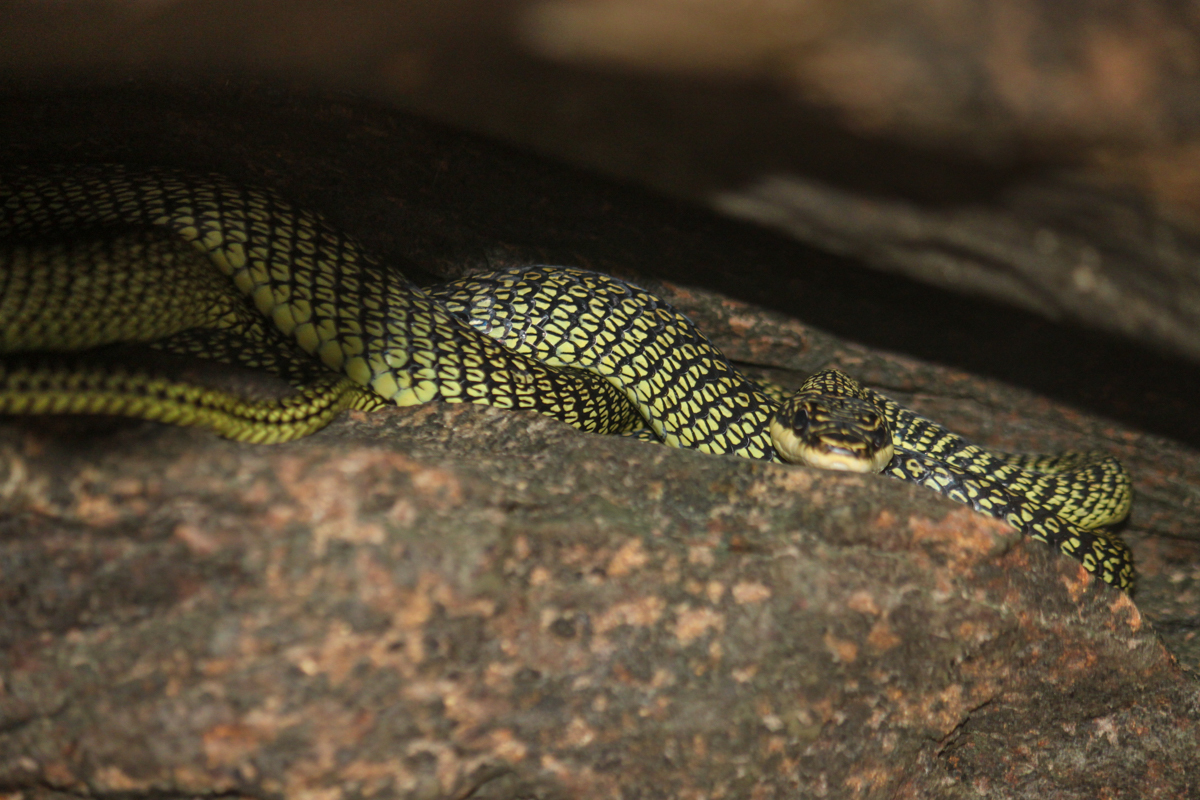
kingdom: Animalia
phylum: Chordata
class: Squamata
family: Colubridae
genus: Chrysopelea
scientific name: Chrysopelea ornata
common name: Golden flying snake
